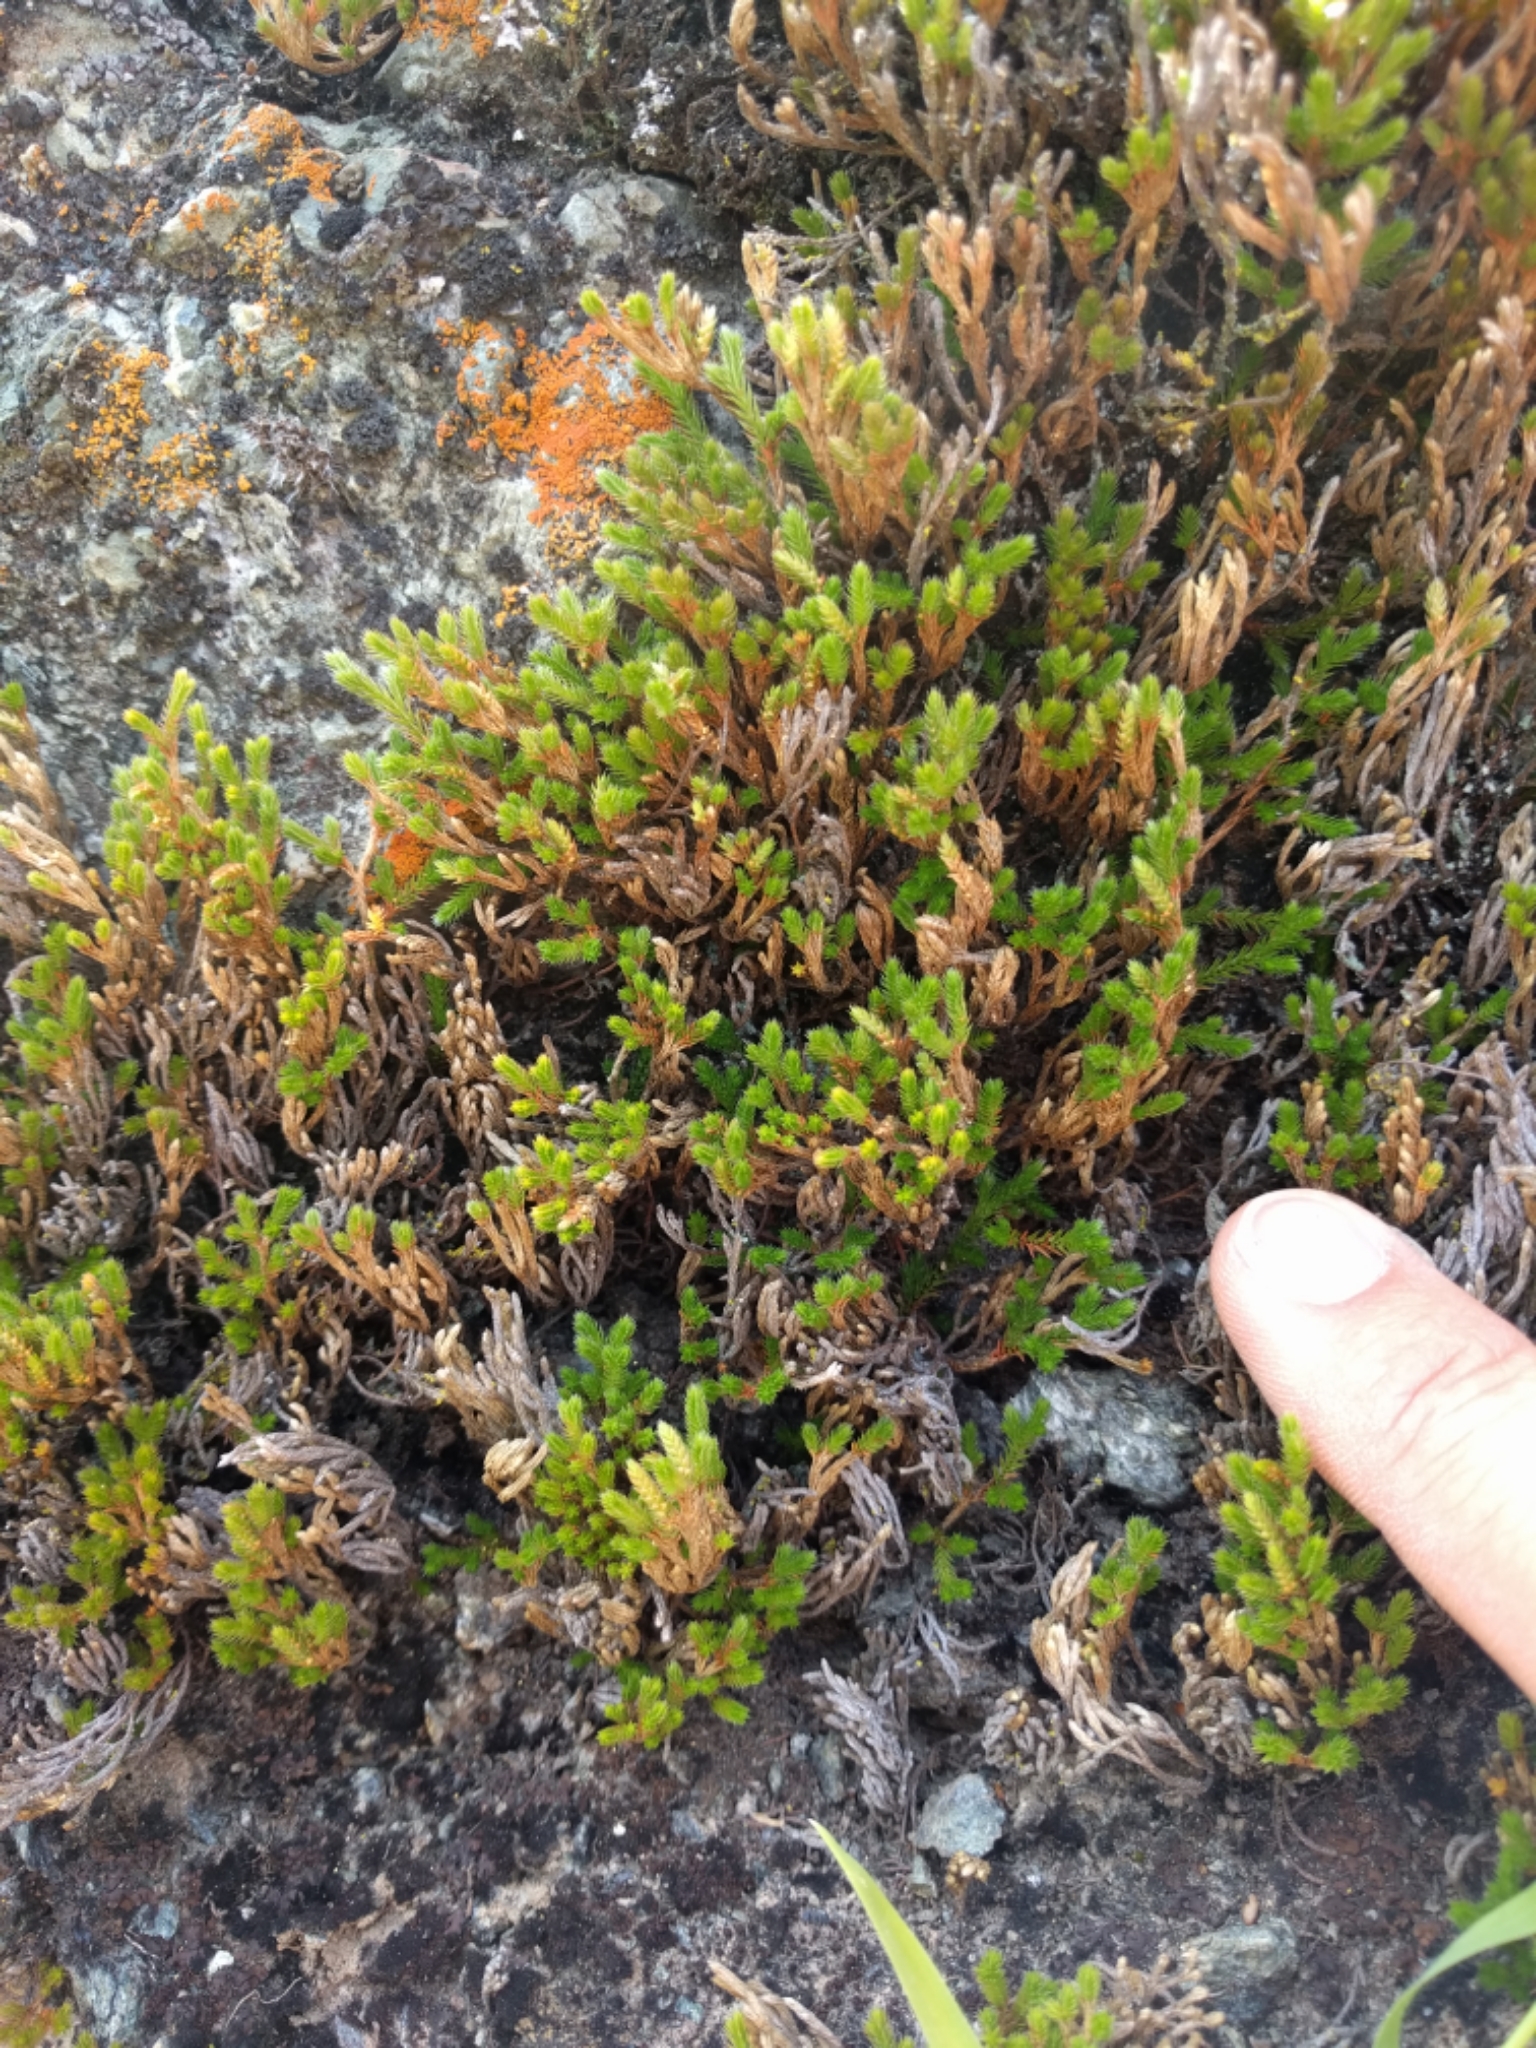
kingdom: Plantae
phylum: Tracheophyta
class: Lycopodiopsida
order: Selaginellales
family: Selaginellaceae
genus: Selaginella
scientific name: Selaginella bigelovii
